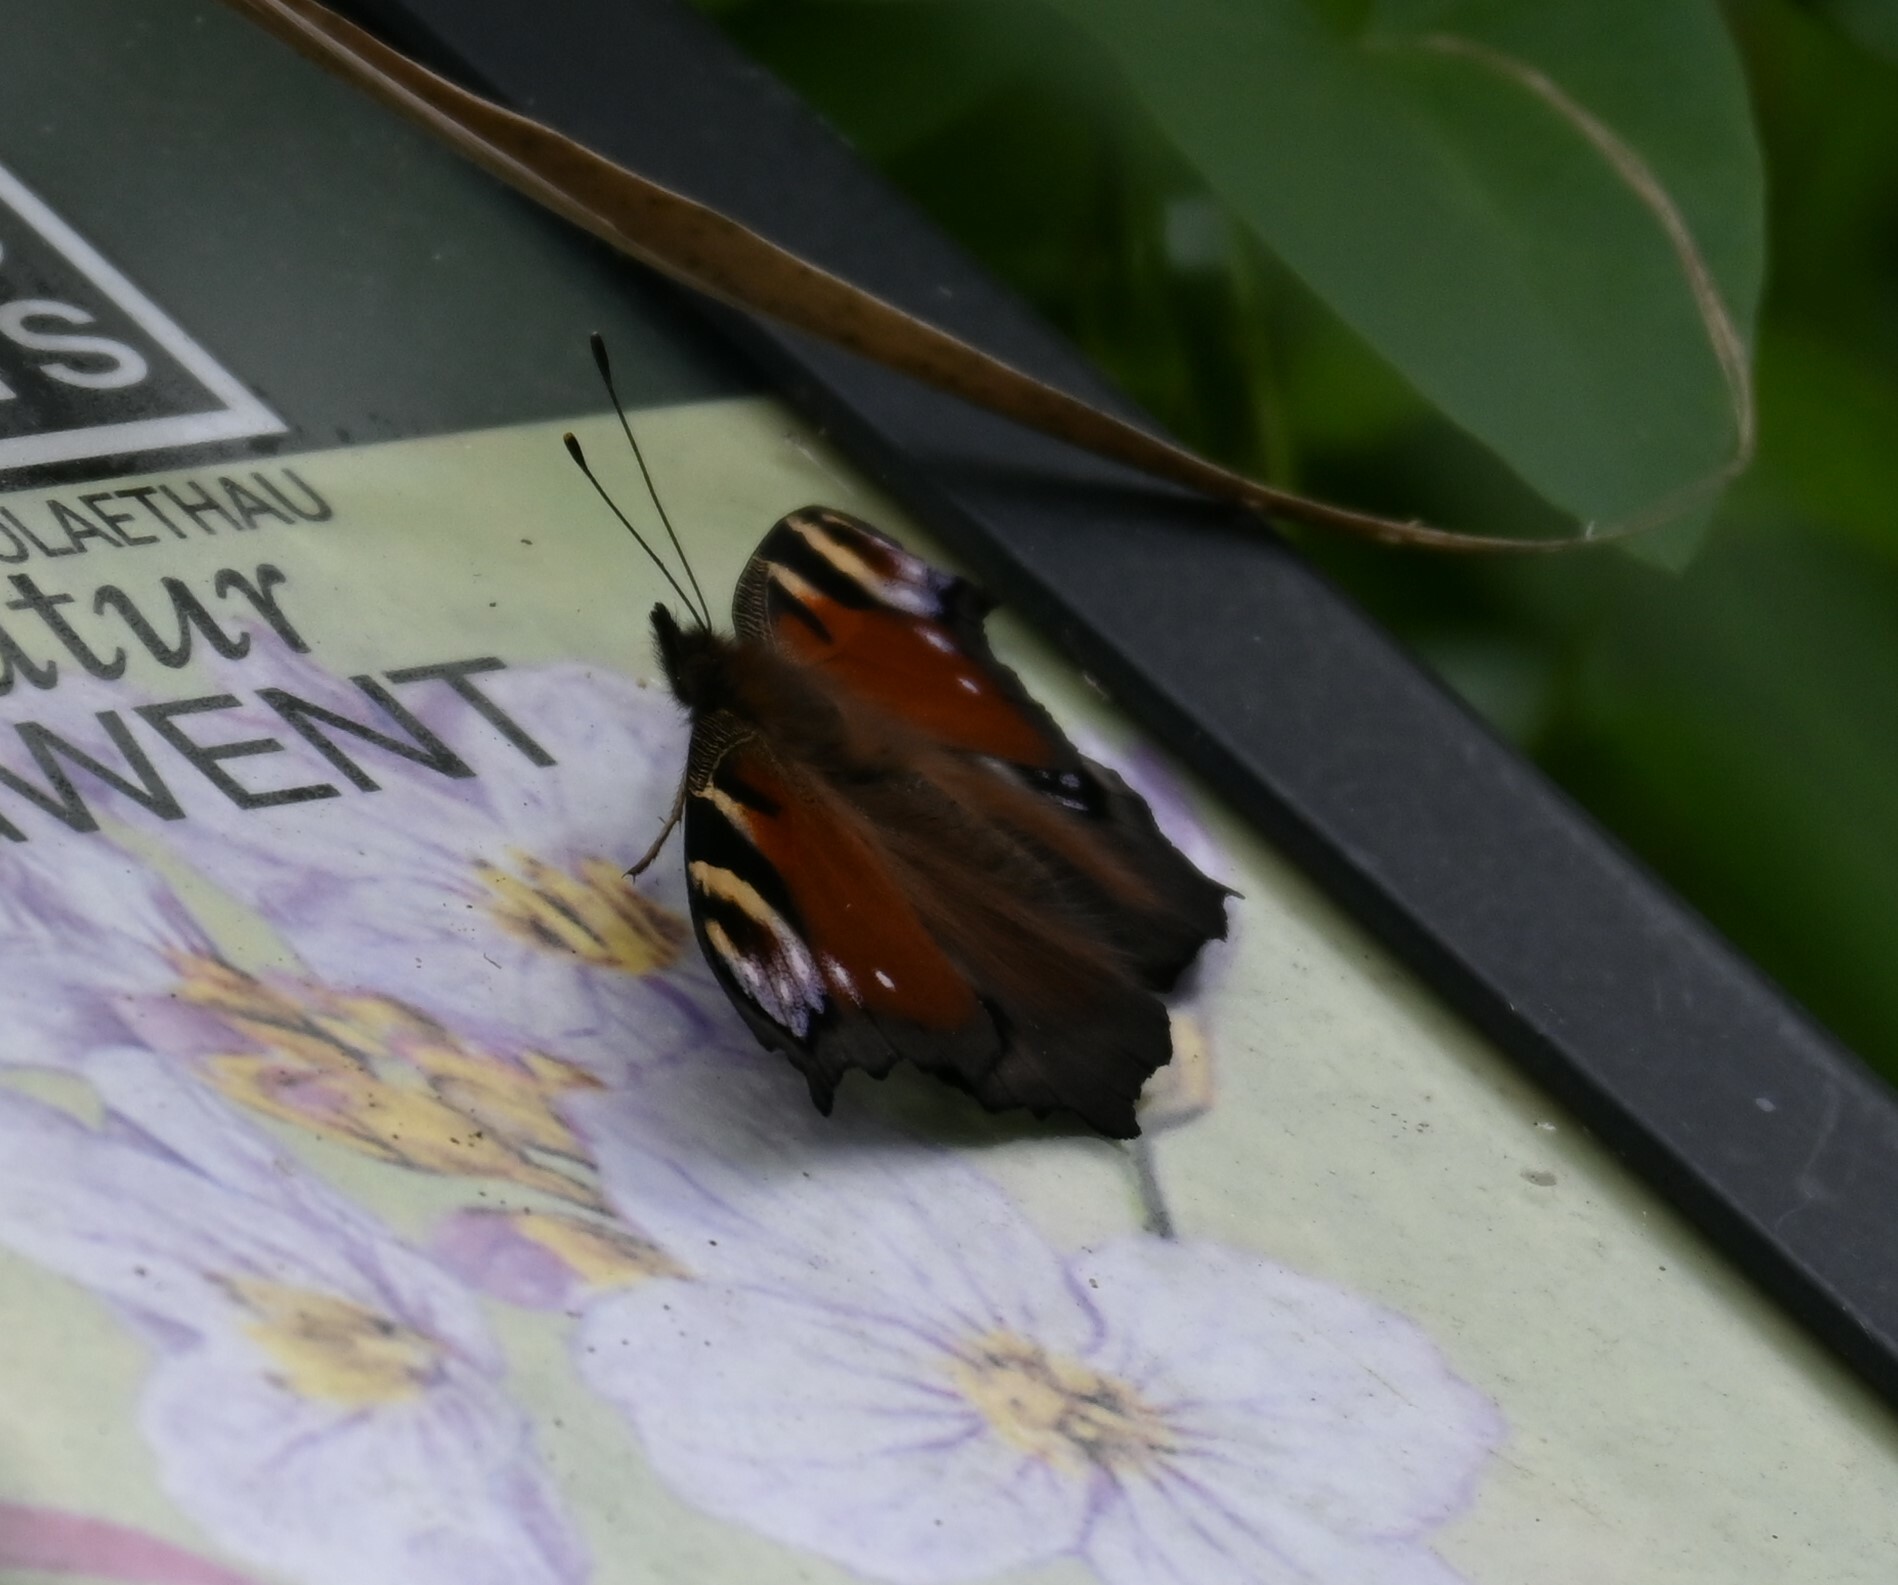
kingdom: Animalia
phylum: Arthropoda
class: Insecta
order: Lepidoptera
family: Nymphalidae
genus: Aglais
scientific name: Aglais io
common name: Peacock
